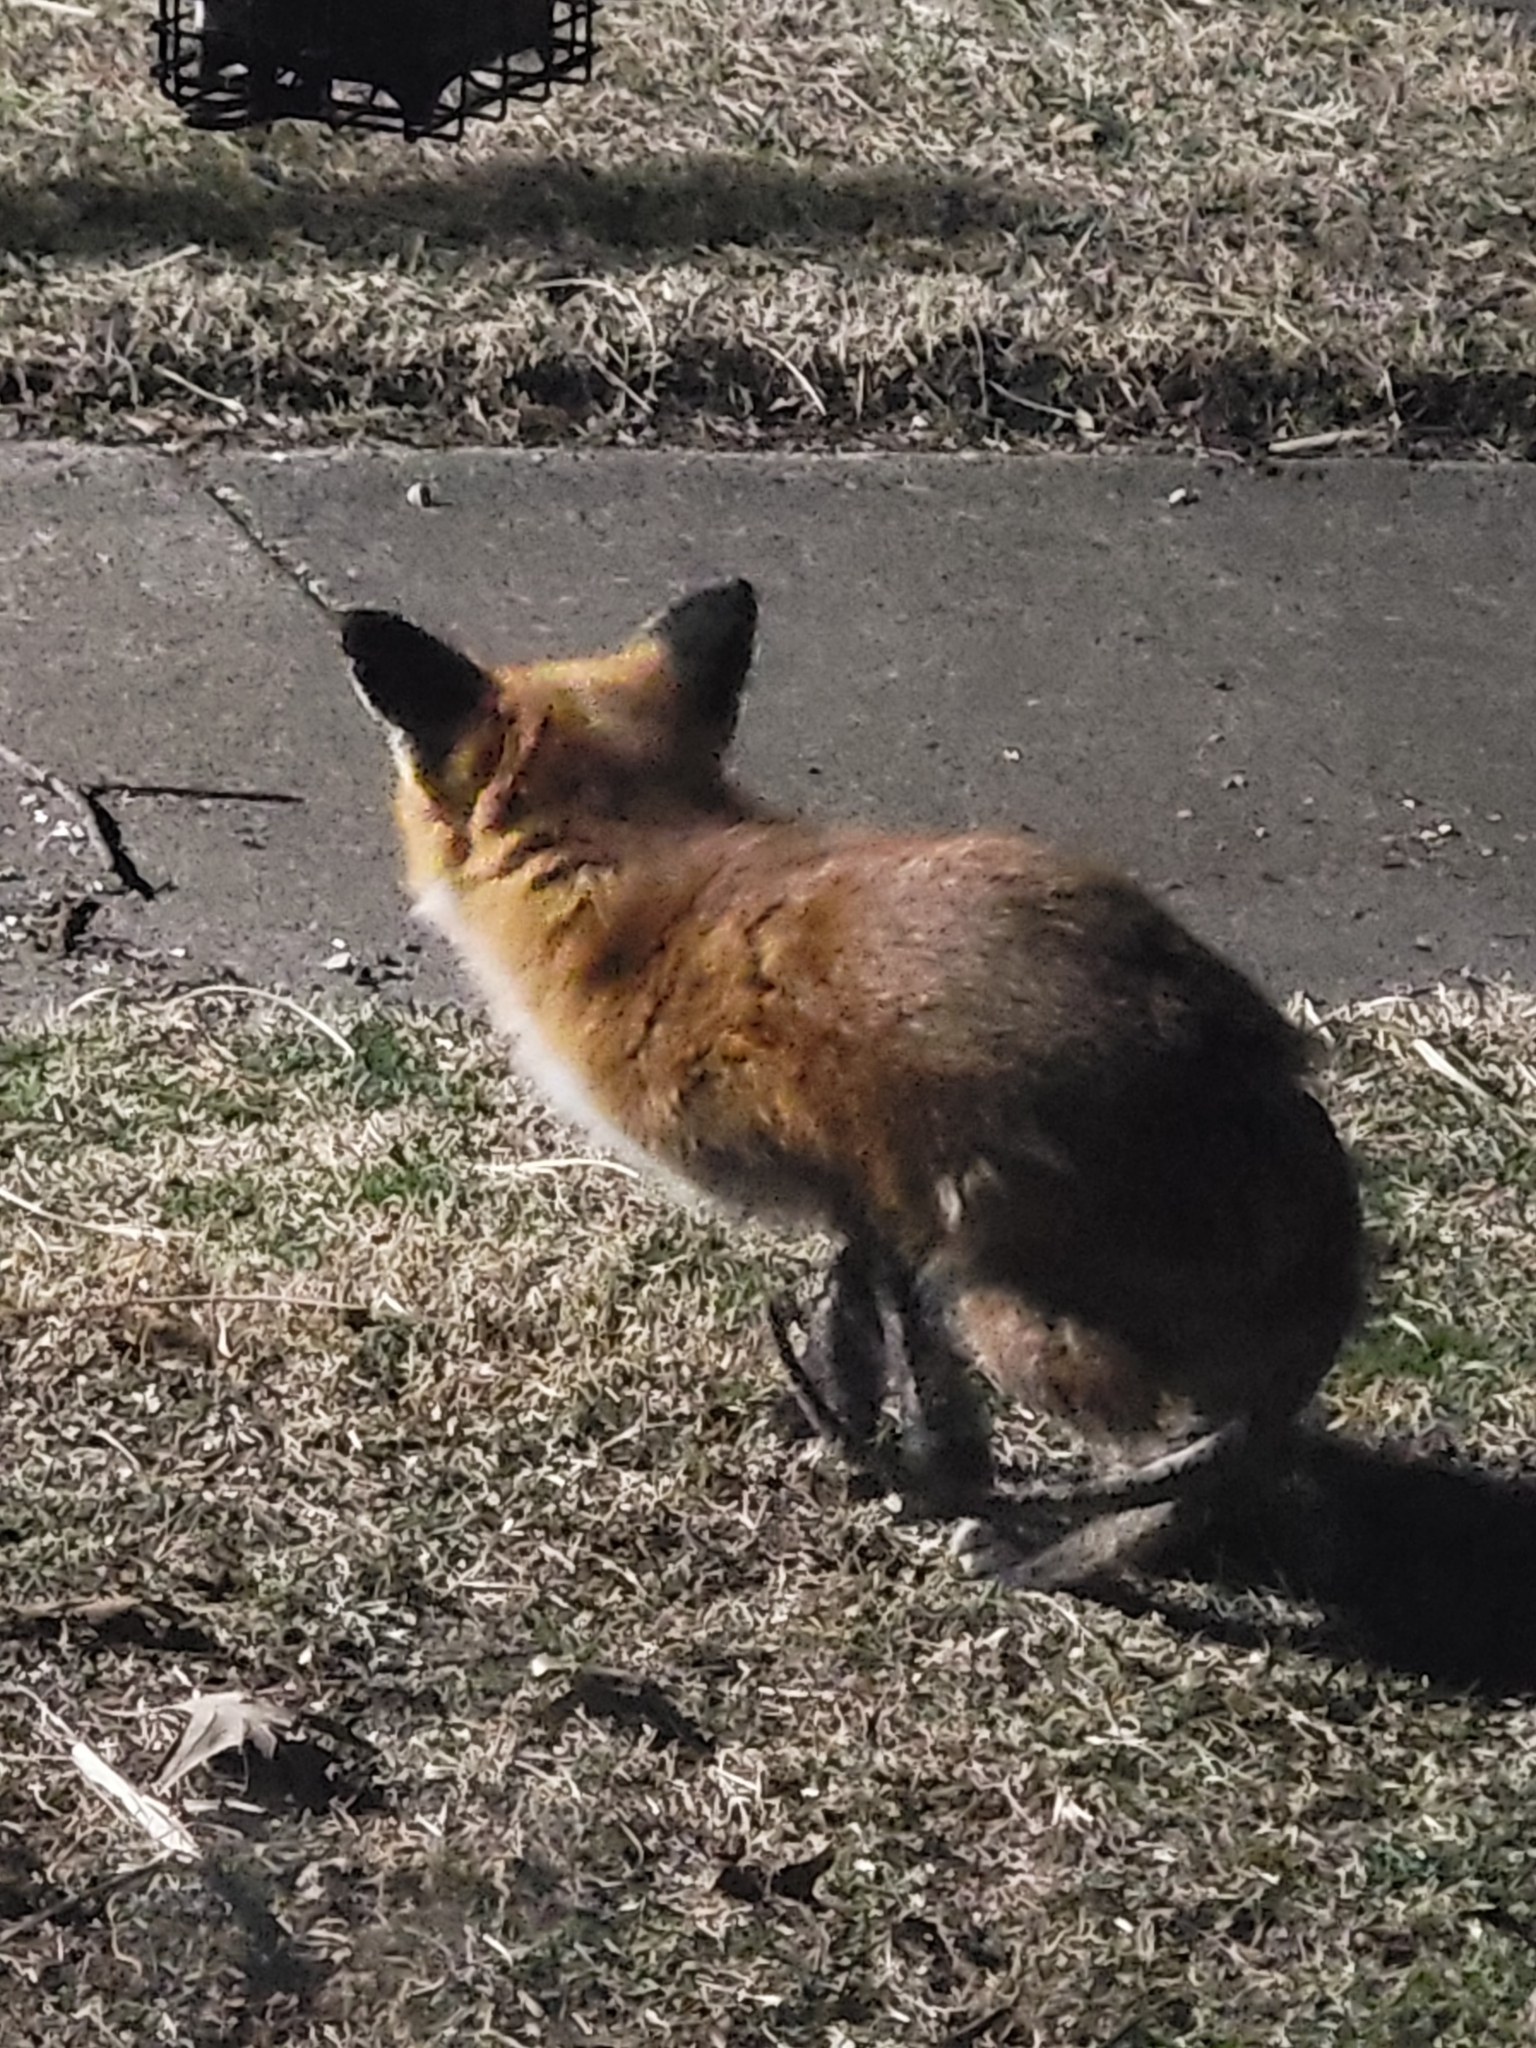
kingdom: Animalia
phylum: Chordata
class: Mammalia
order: Carnivora
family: Canidae
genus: Vulpes
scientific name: Vulpes vulpes
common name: Red fox
